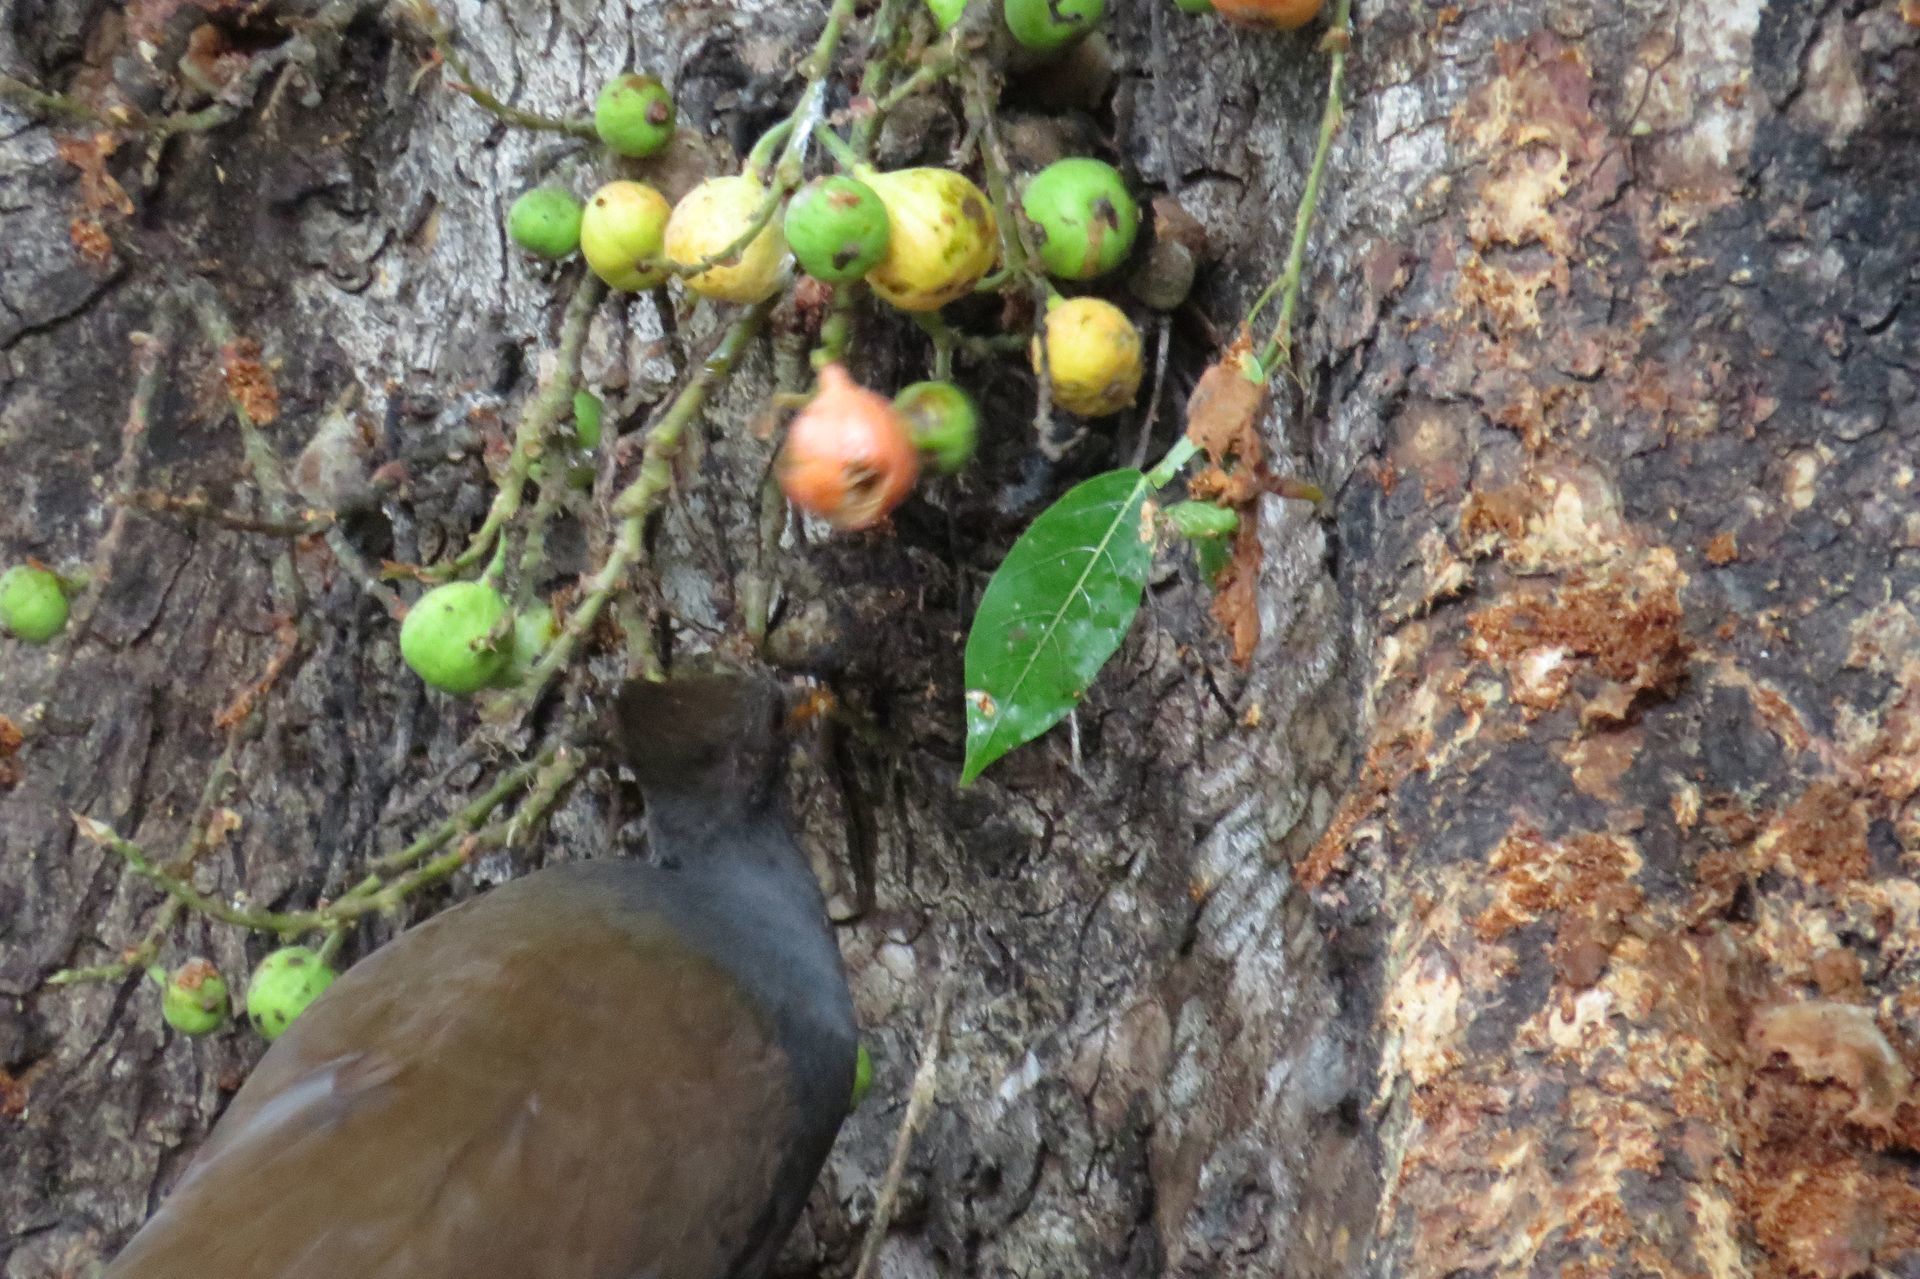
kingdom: Animalia
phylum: Chordata
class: Aves
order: Galliformes
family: Megapodiidae
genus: Megapodius
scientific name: Megapodius reinwardt
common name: Orange-footed scrubfowl
